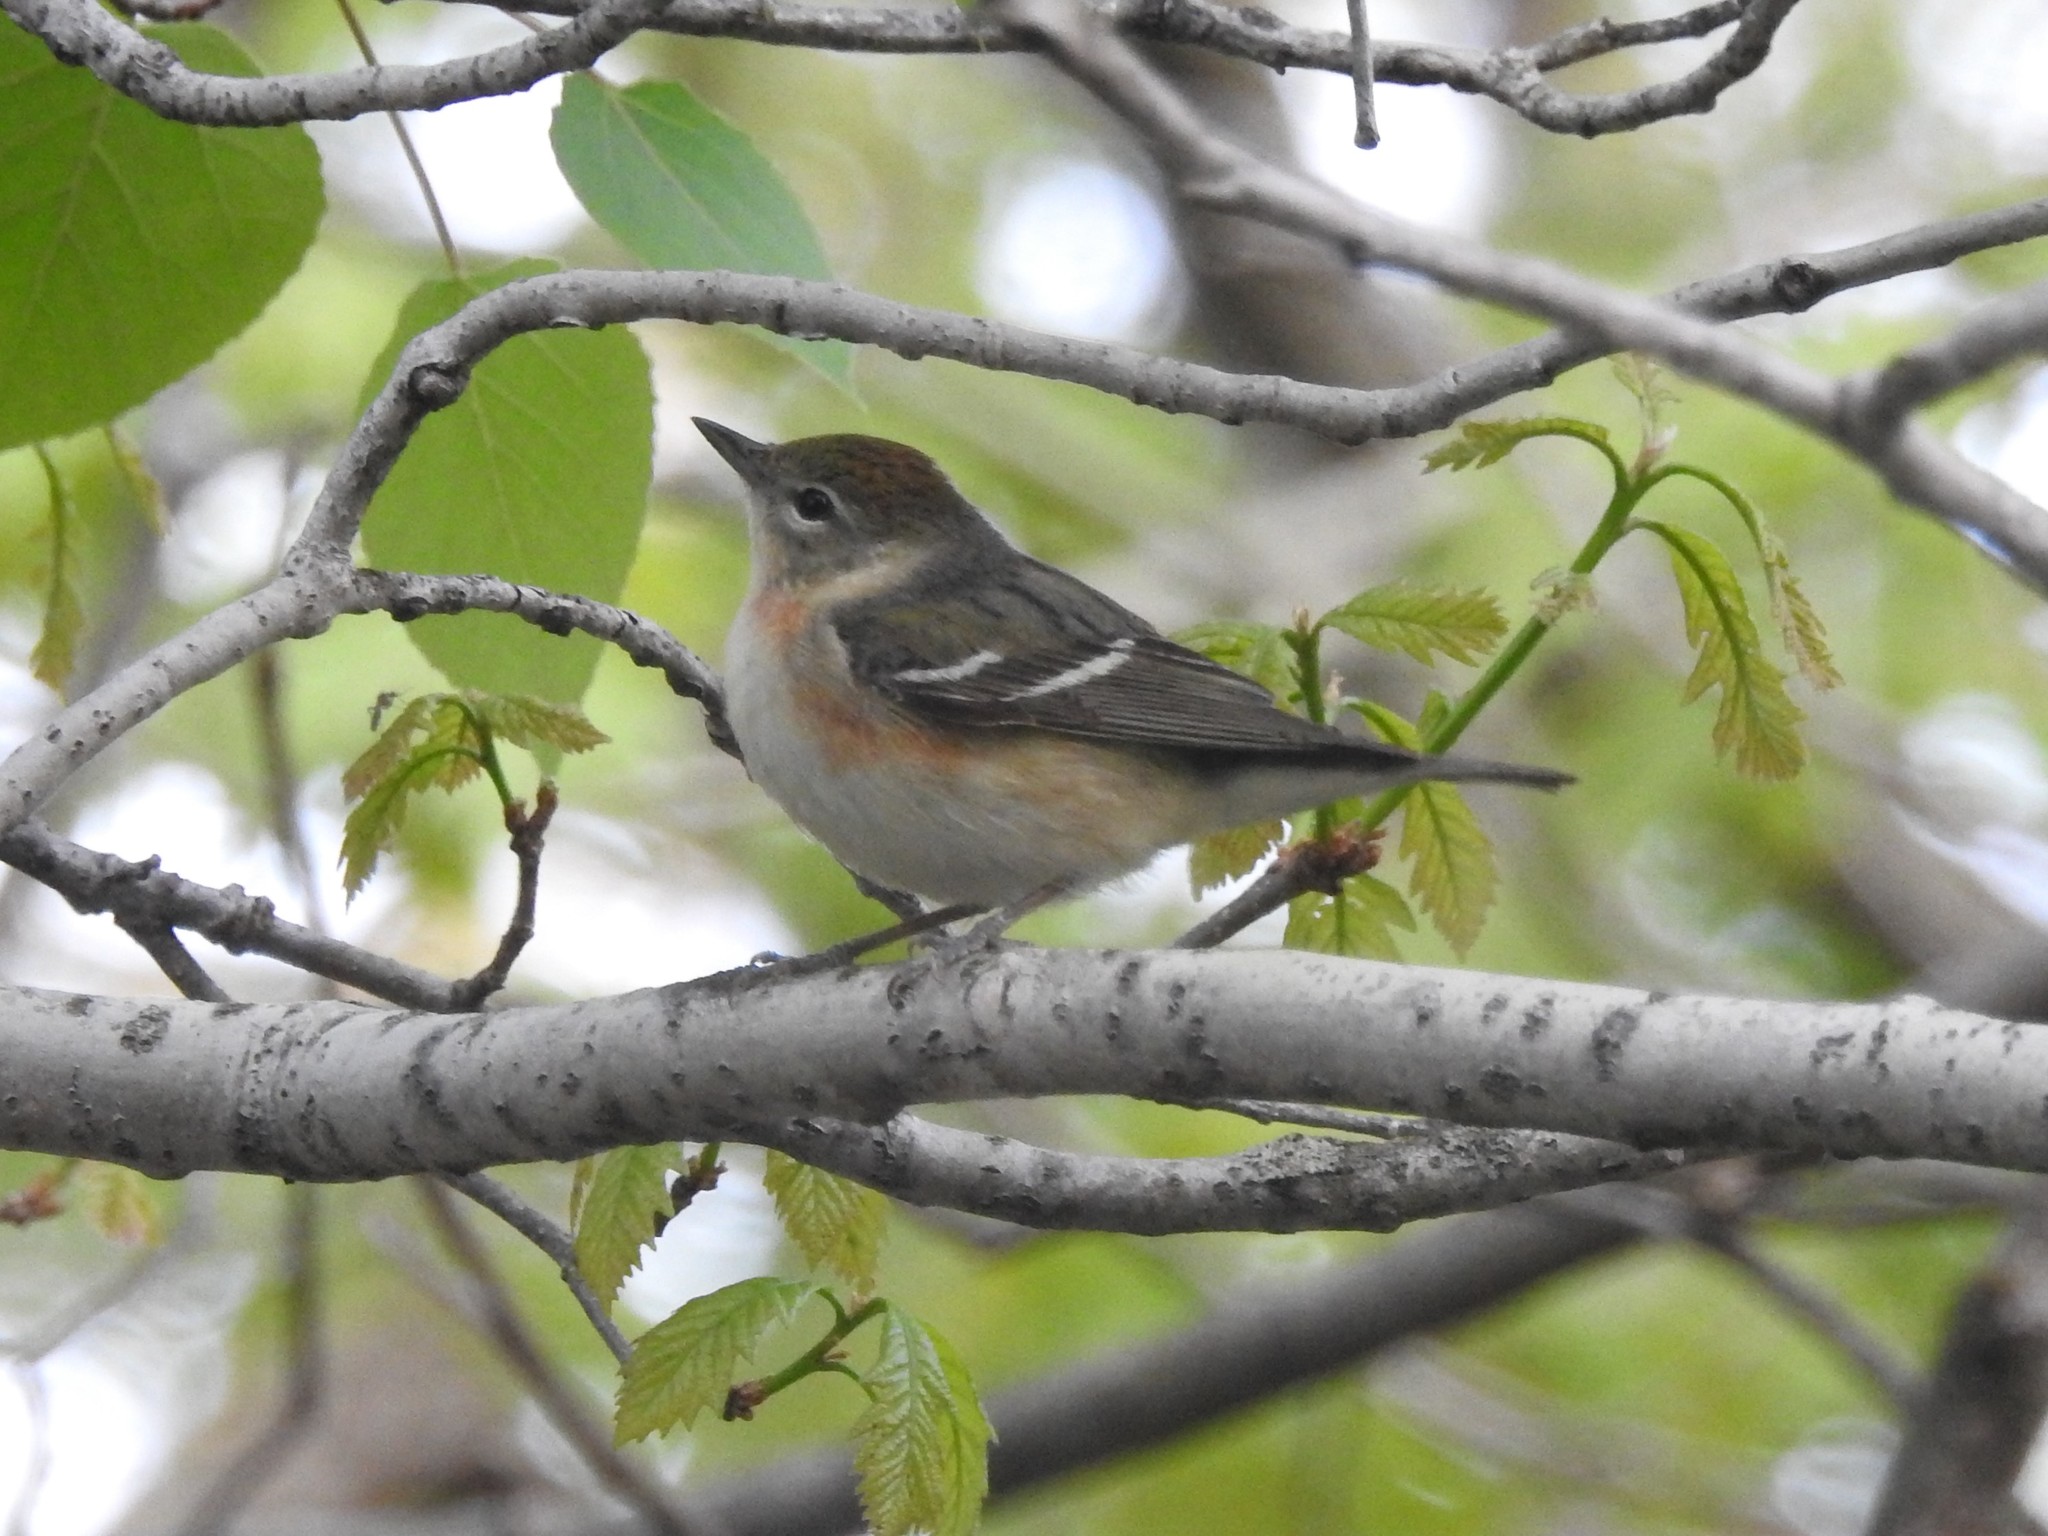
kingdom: Animalia
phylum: Chordata
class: Aves
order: Passeriformes
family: Parulidae
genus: Setophaga
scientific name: Setophaga castanea
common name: Bay-breasted warbler
